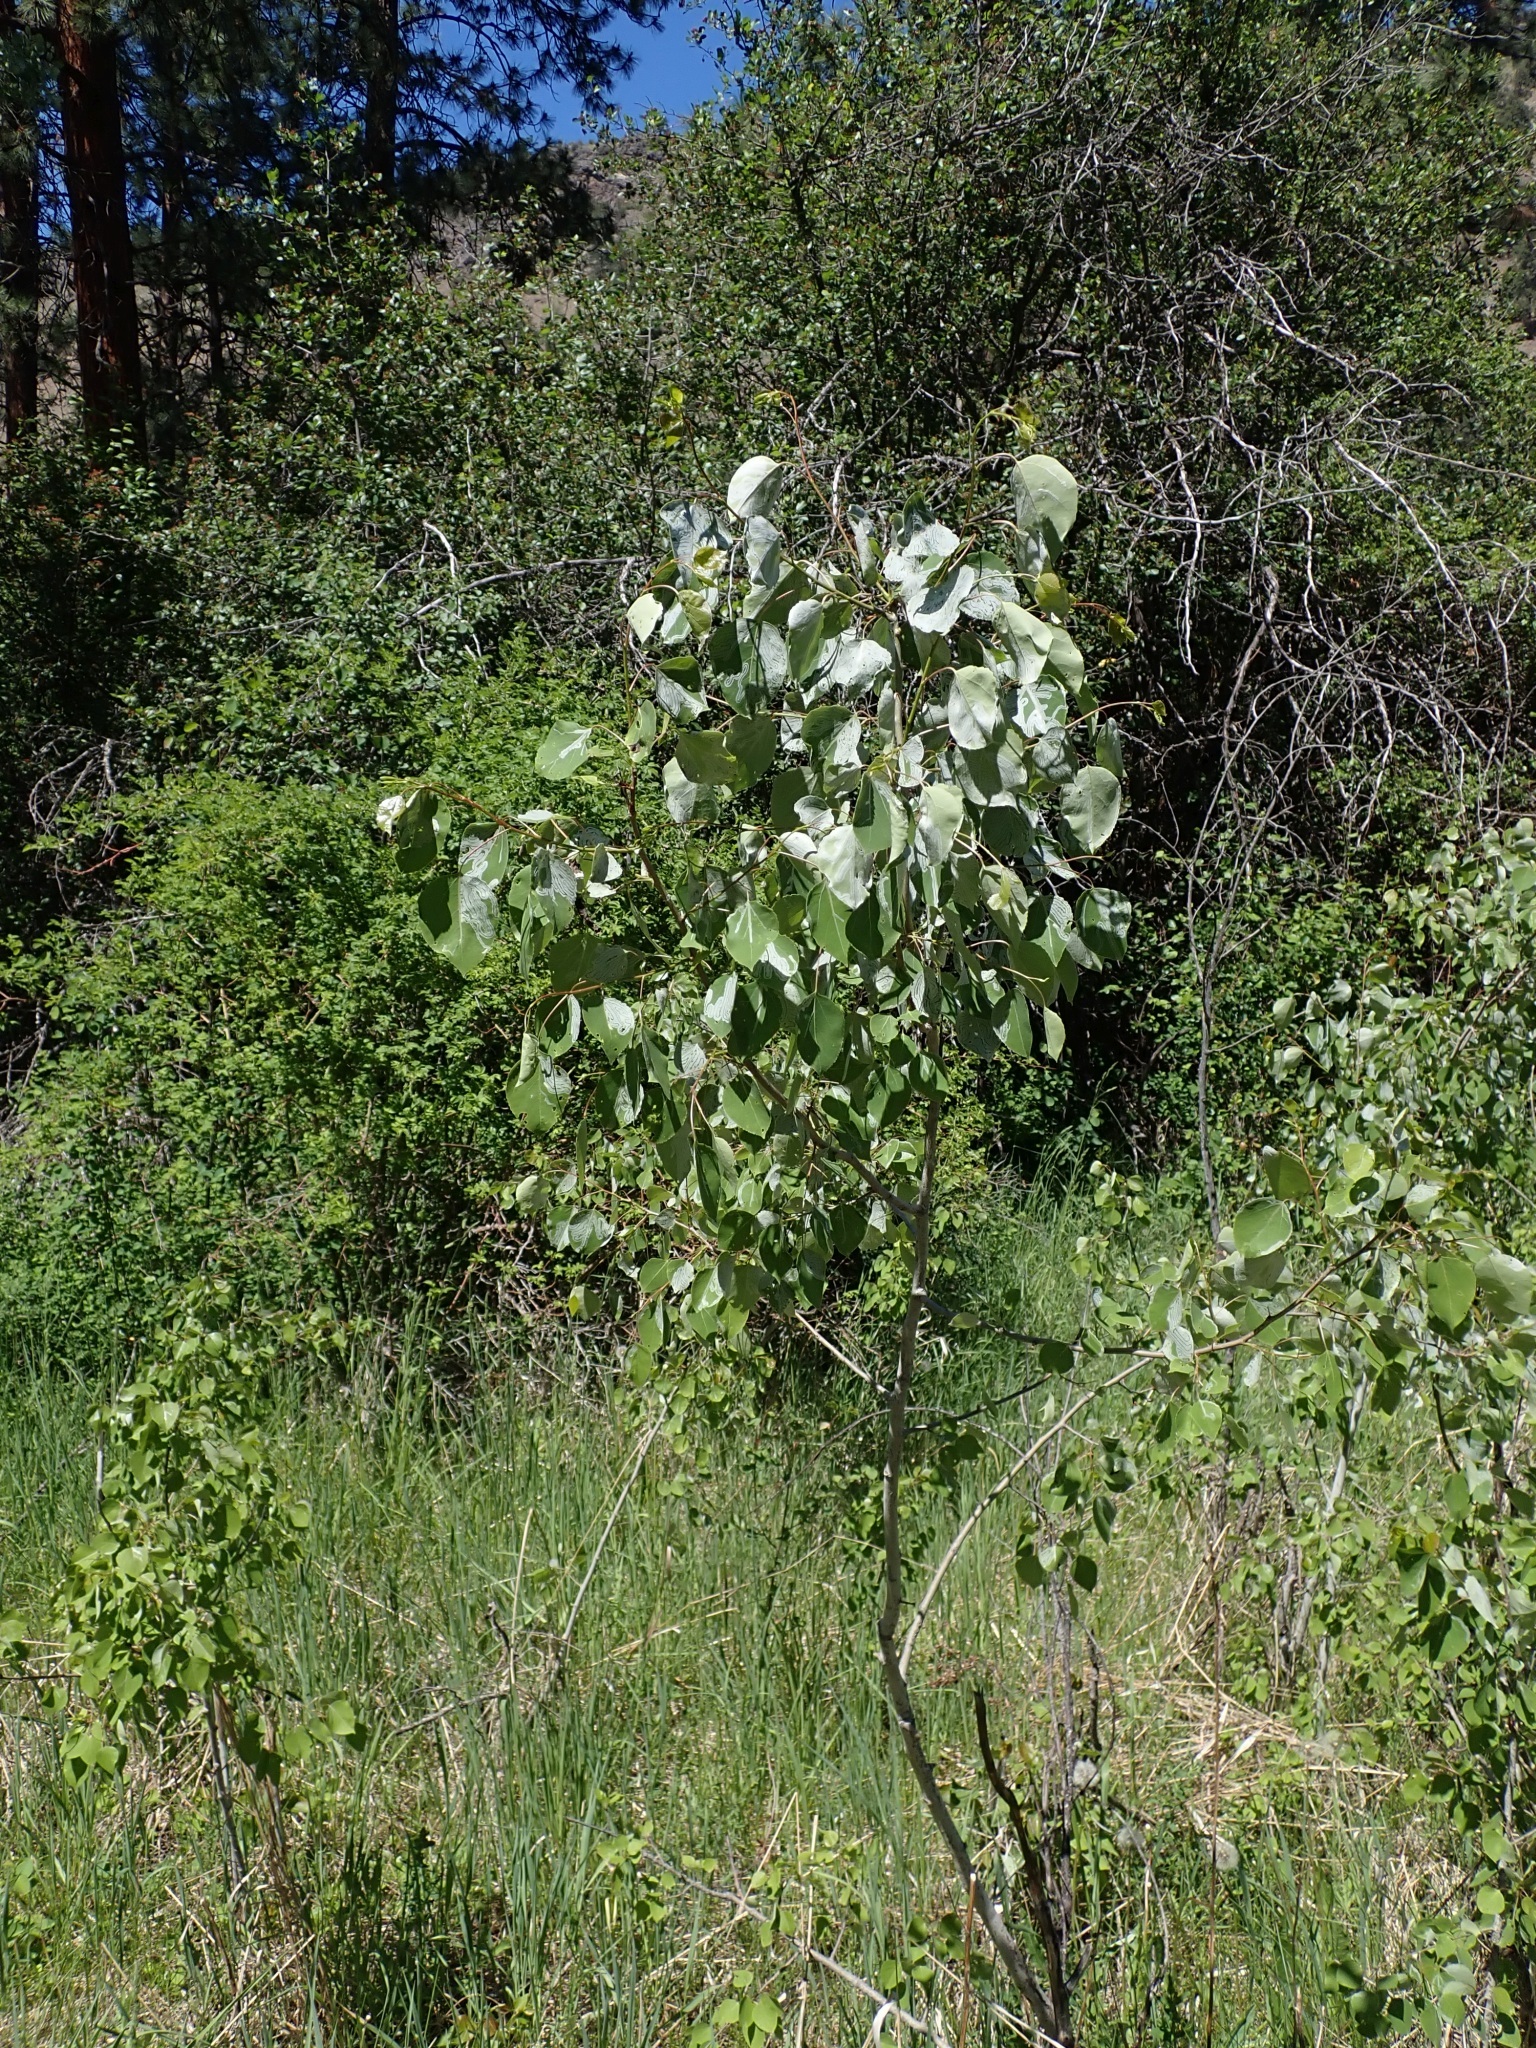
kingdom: Plantae
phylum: Tracheophyta
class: Magnoliopsida
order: Malpighiales
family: Salicaceae
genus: Populus
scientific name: Populus tremuloides
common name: Quaking aspen
